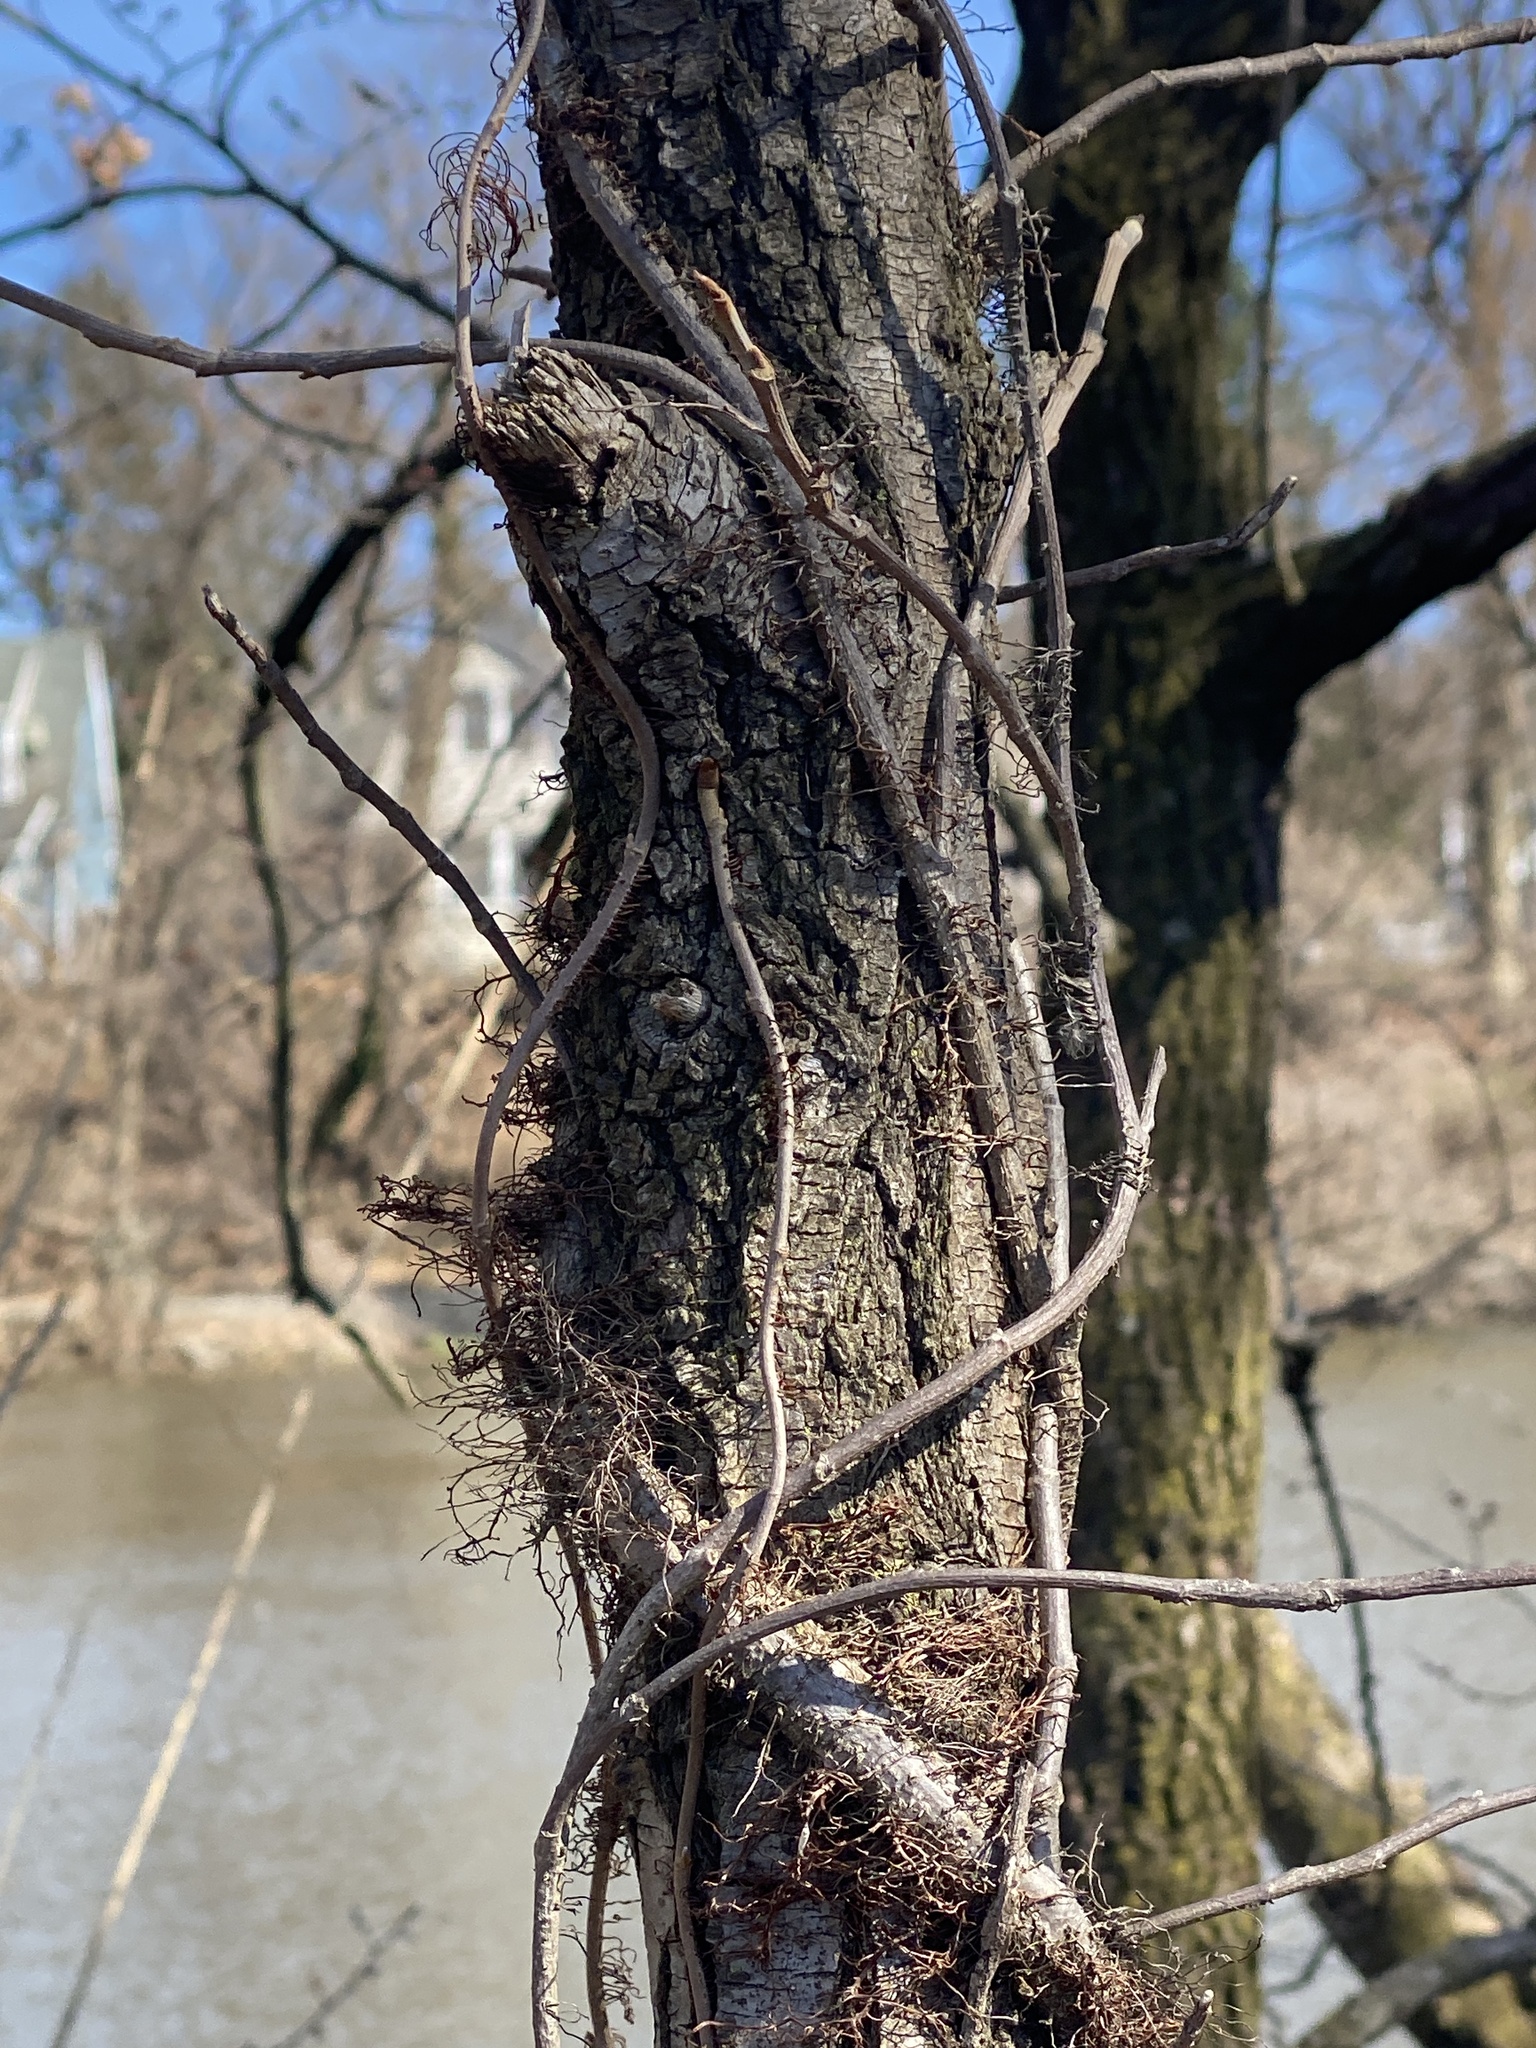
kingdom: Plantae
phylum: Tracheophyta
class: Magnoliopsida
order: Sapindales
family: Anacardiaceae
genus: Toxicodendron
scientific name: Toxicodendron radicans
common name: Poison ivy
